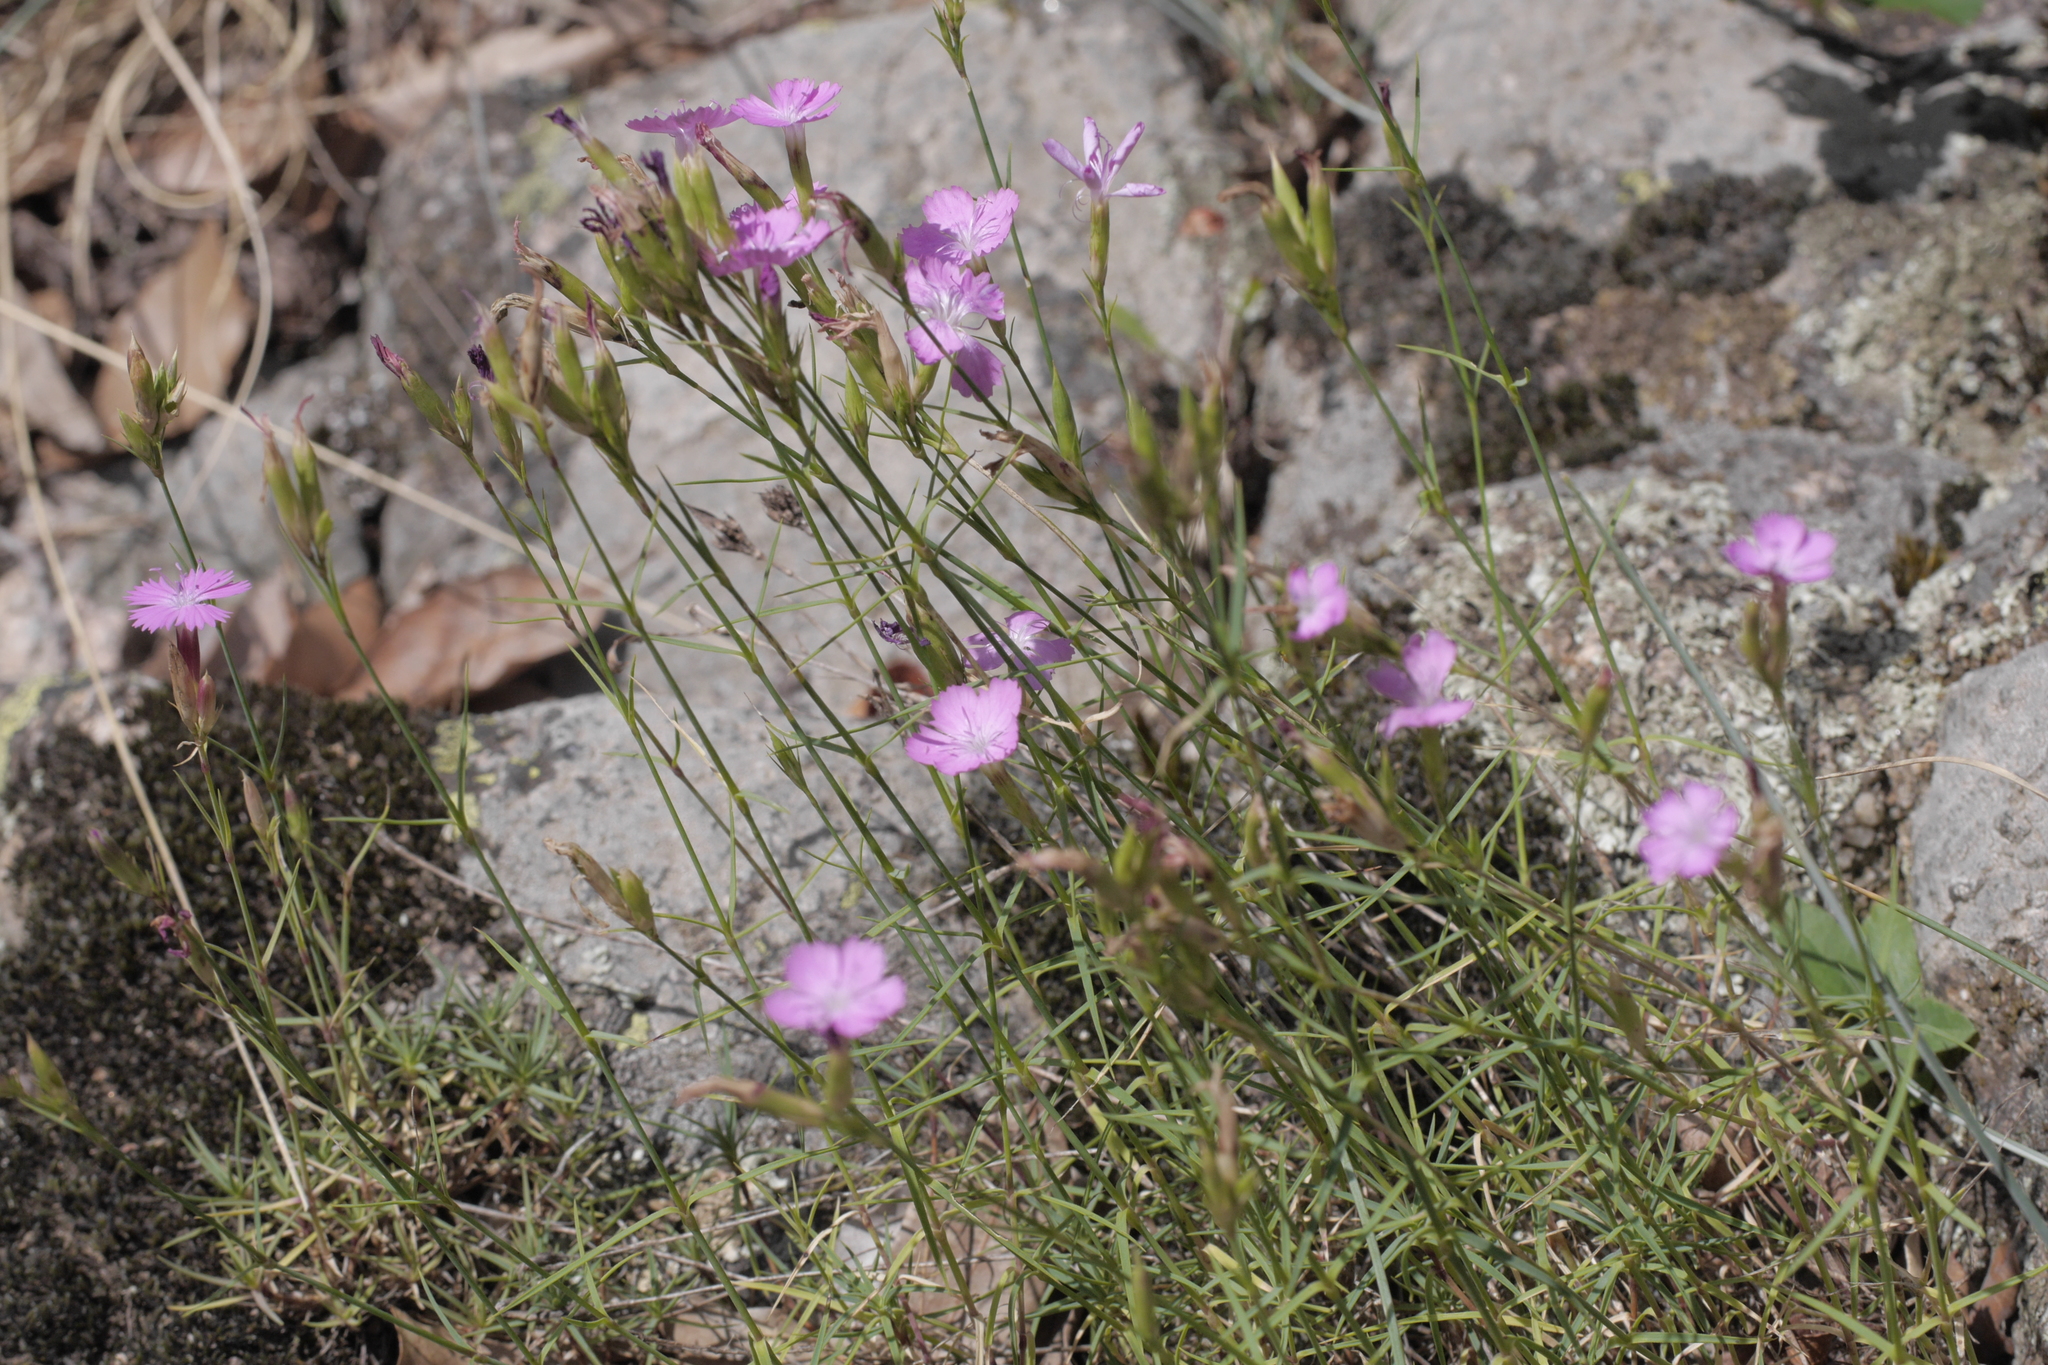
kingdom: Plantae
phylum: Tracheophyta
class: Magnoliopsida
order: Caryophyllales
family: Caryophyllaceae
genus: Dianthus
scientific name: Dianthus graniticus
